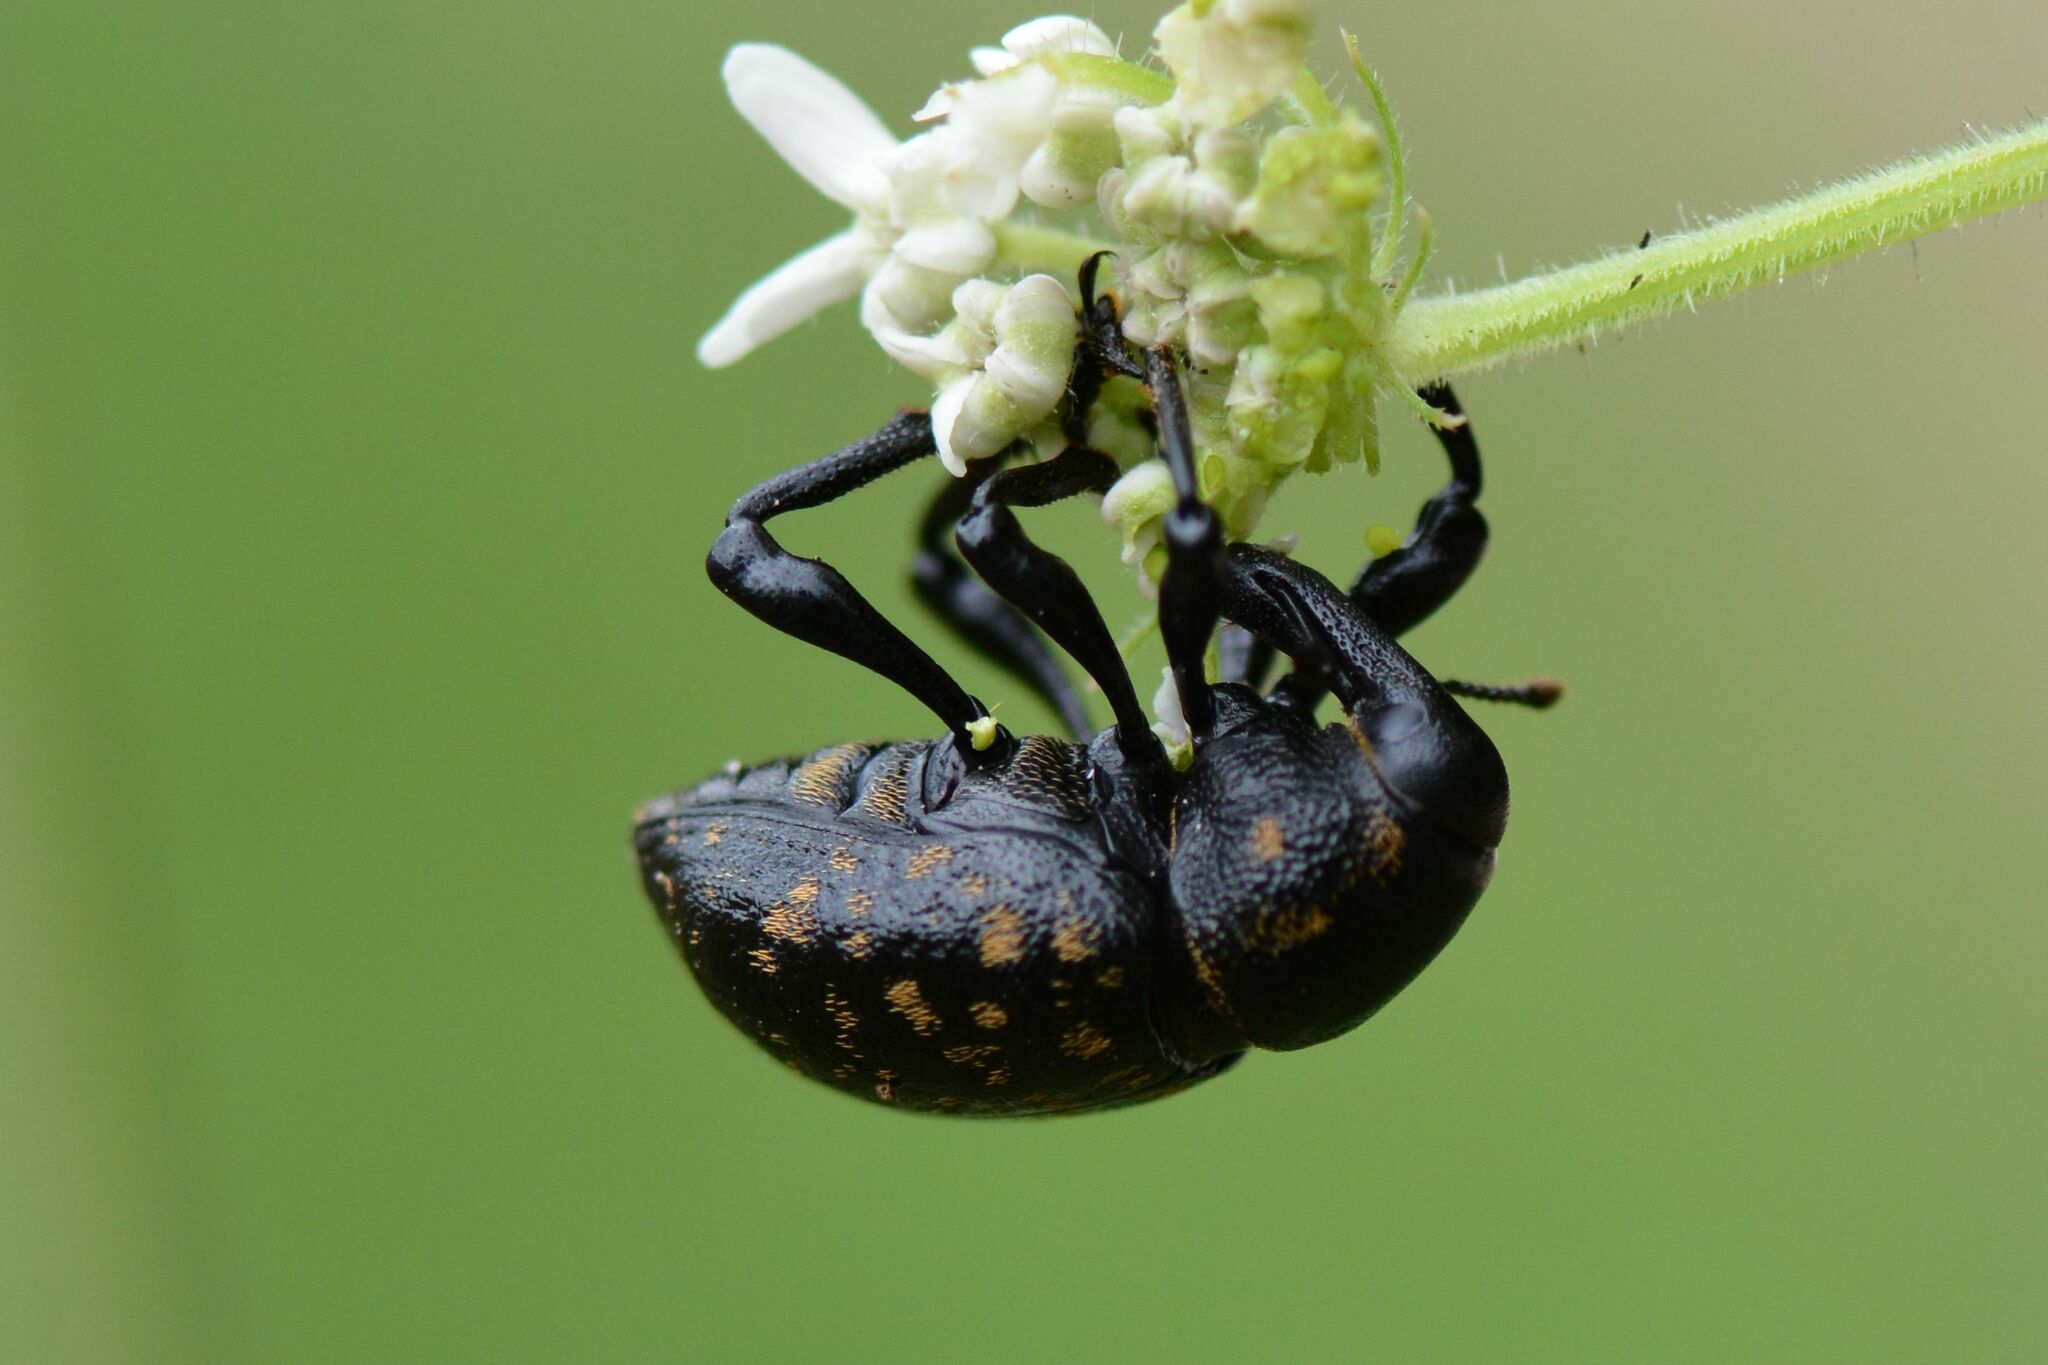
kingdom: Animalia
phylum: Arthropoda
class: Insecta
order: Coleoptera
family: Curculionidae
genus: Liparus
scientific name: Liparus germanus
